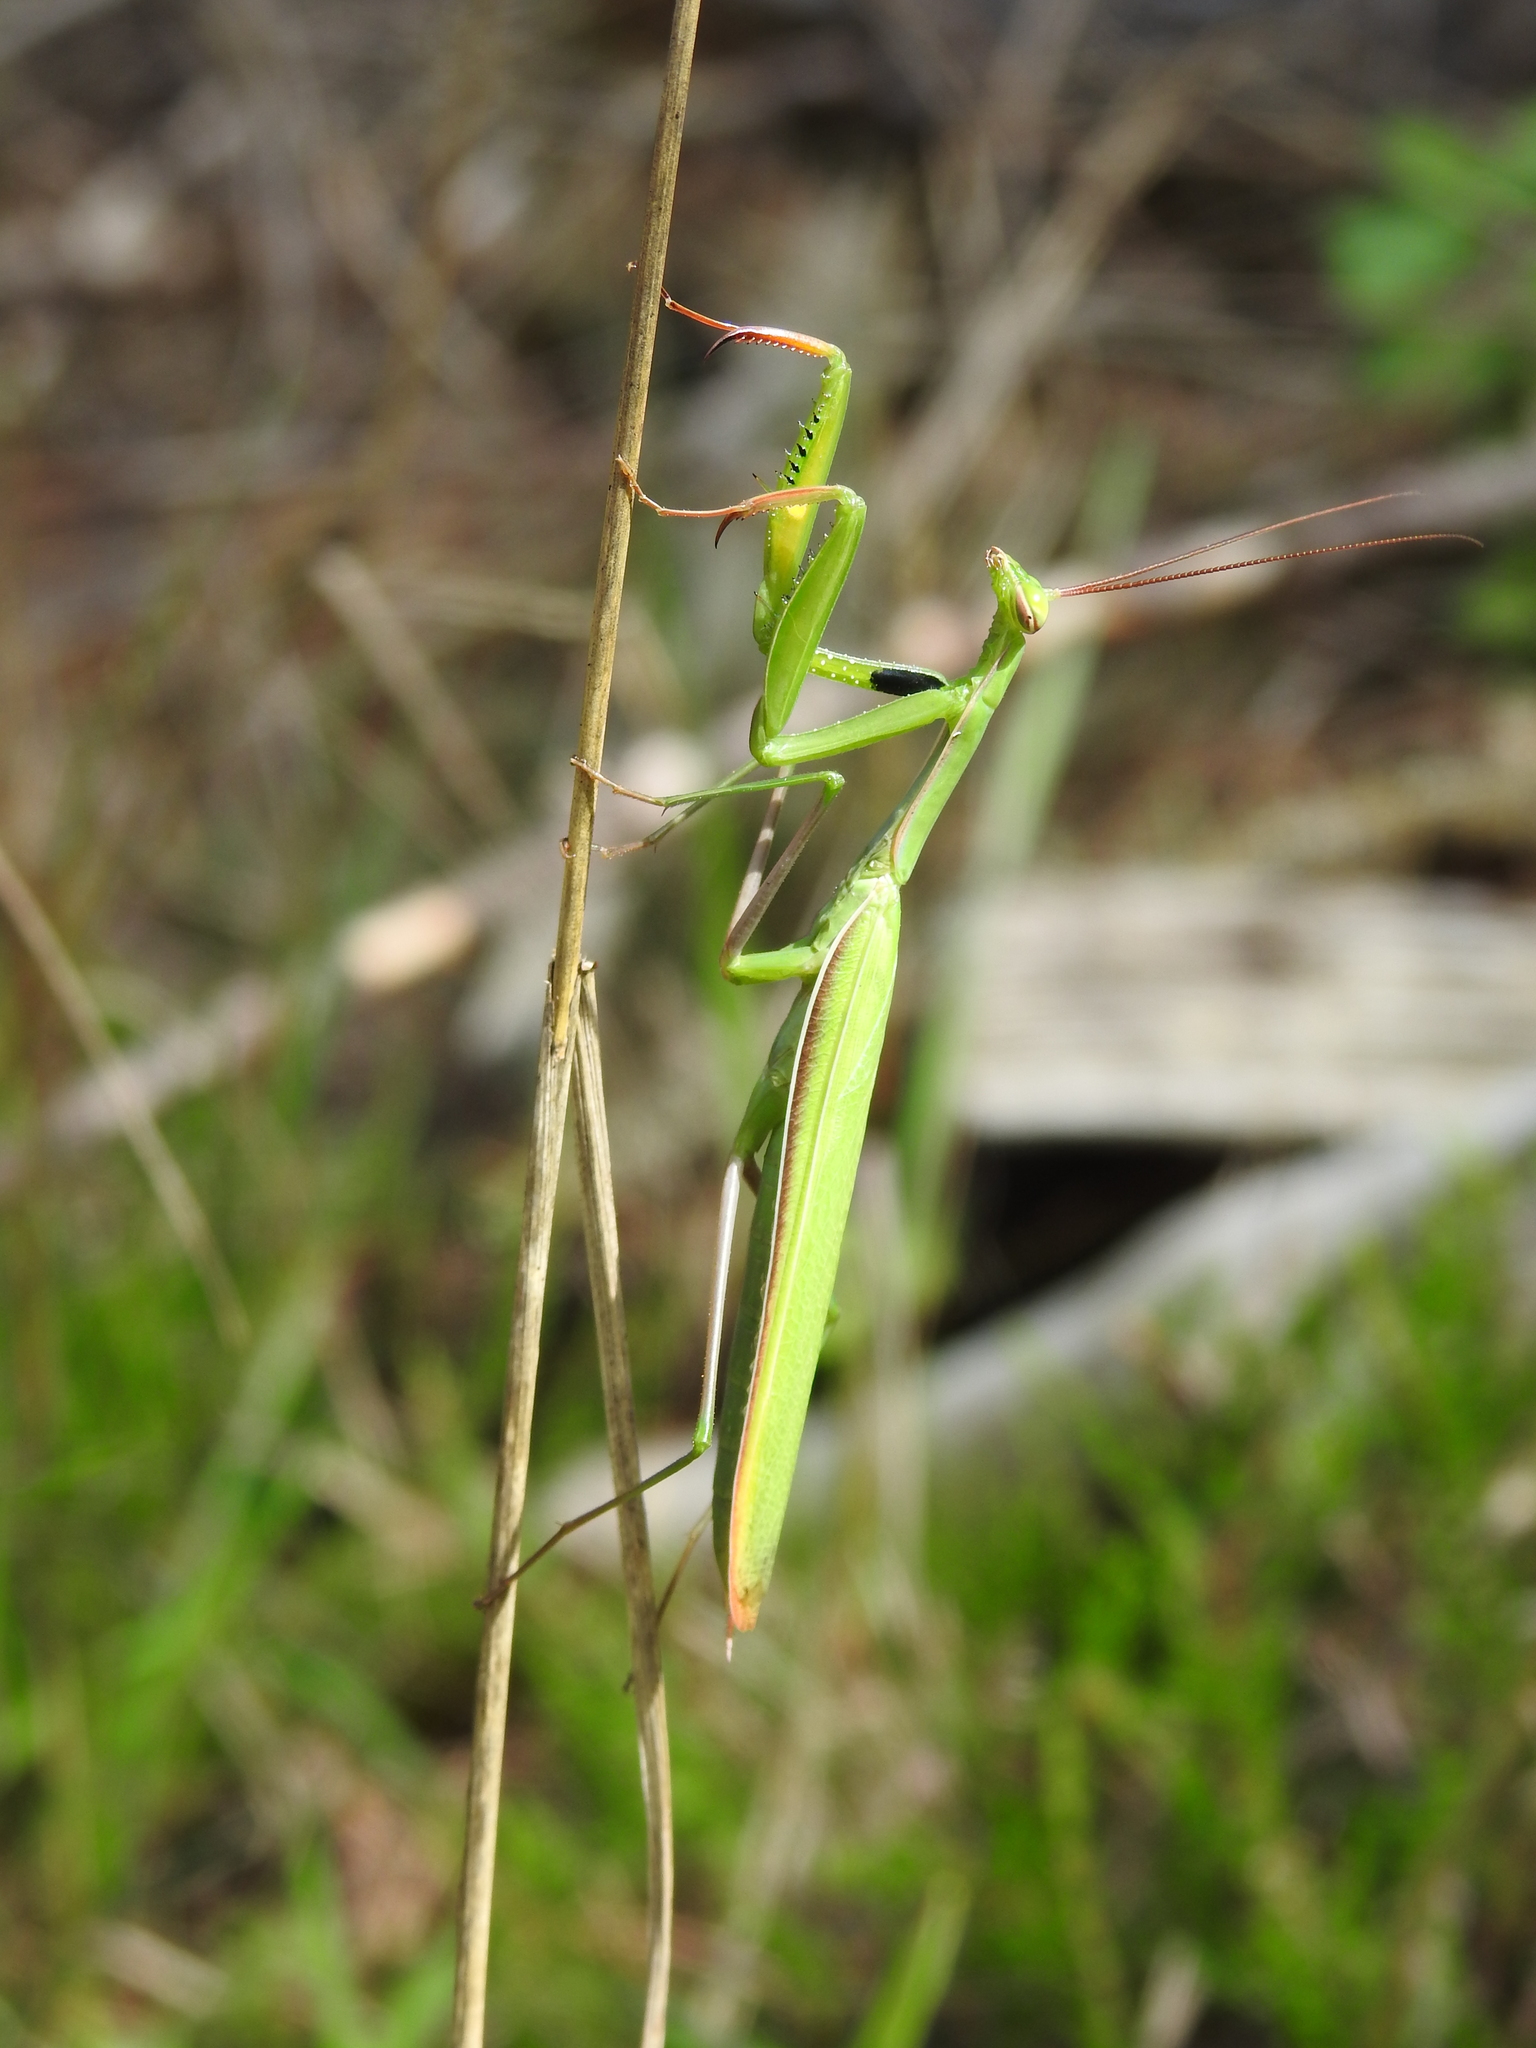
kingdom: Animalia
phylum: Arthropoda
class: Insecta
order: Mantodea
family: Mantidae
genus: Mantis
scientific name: Mantis religiosa
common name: Praying mantis
